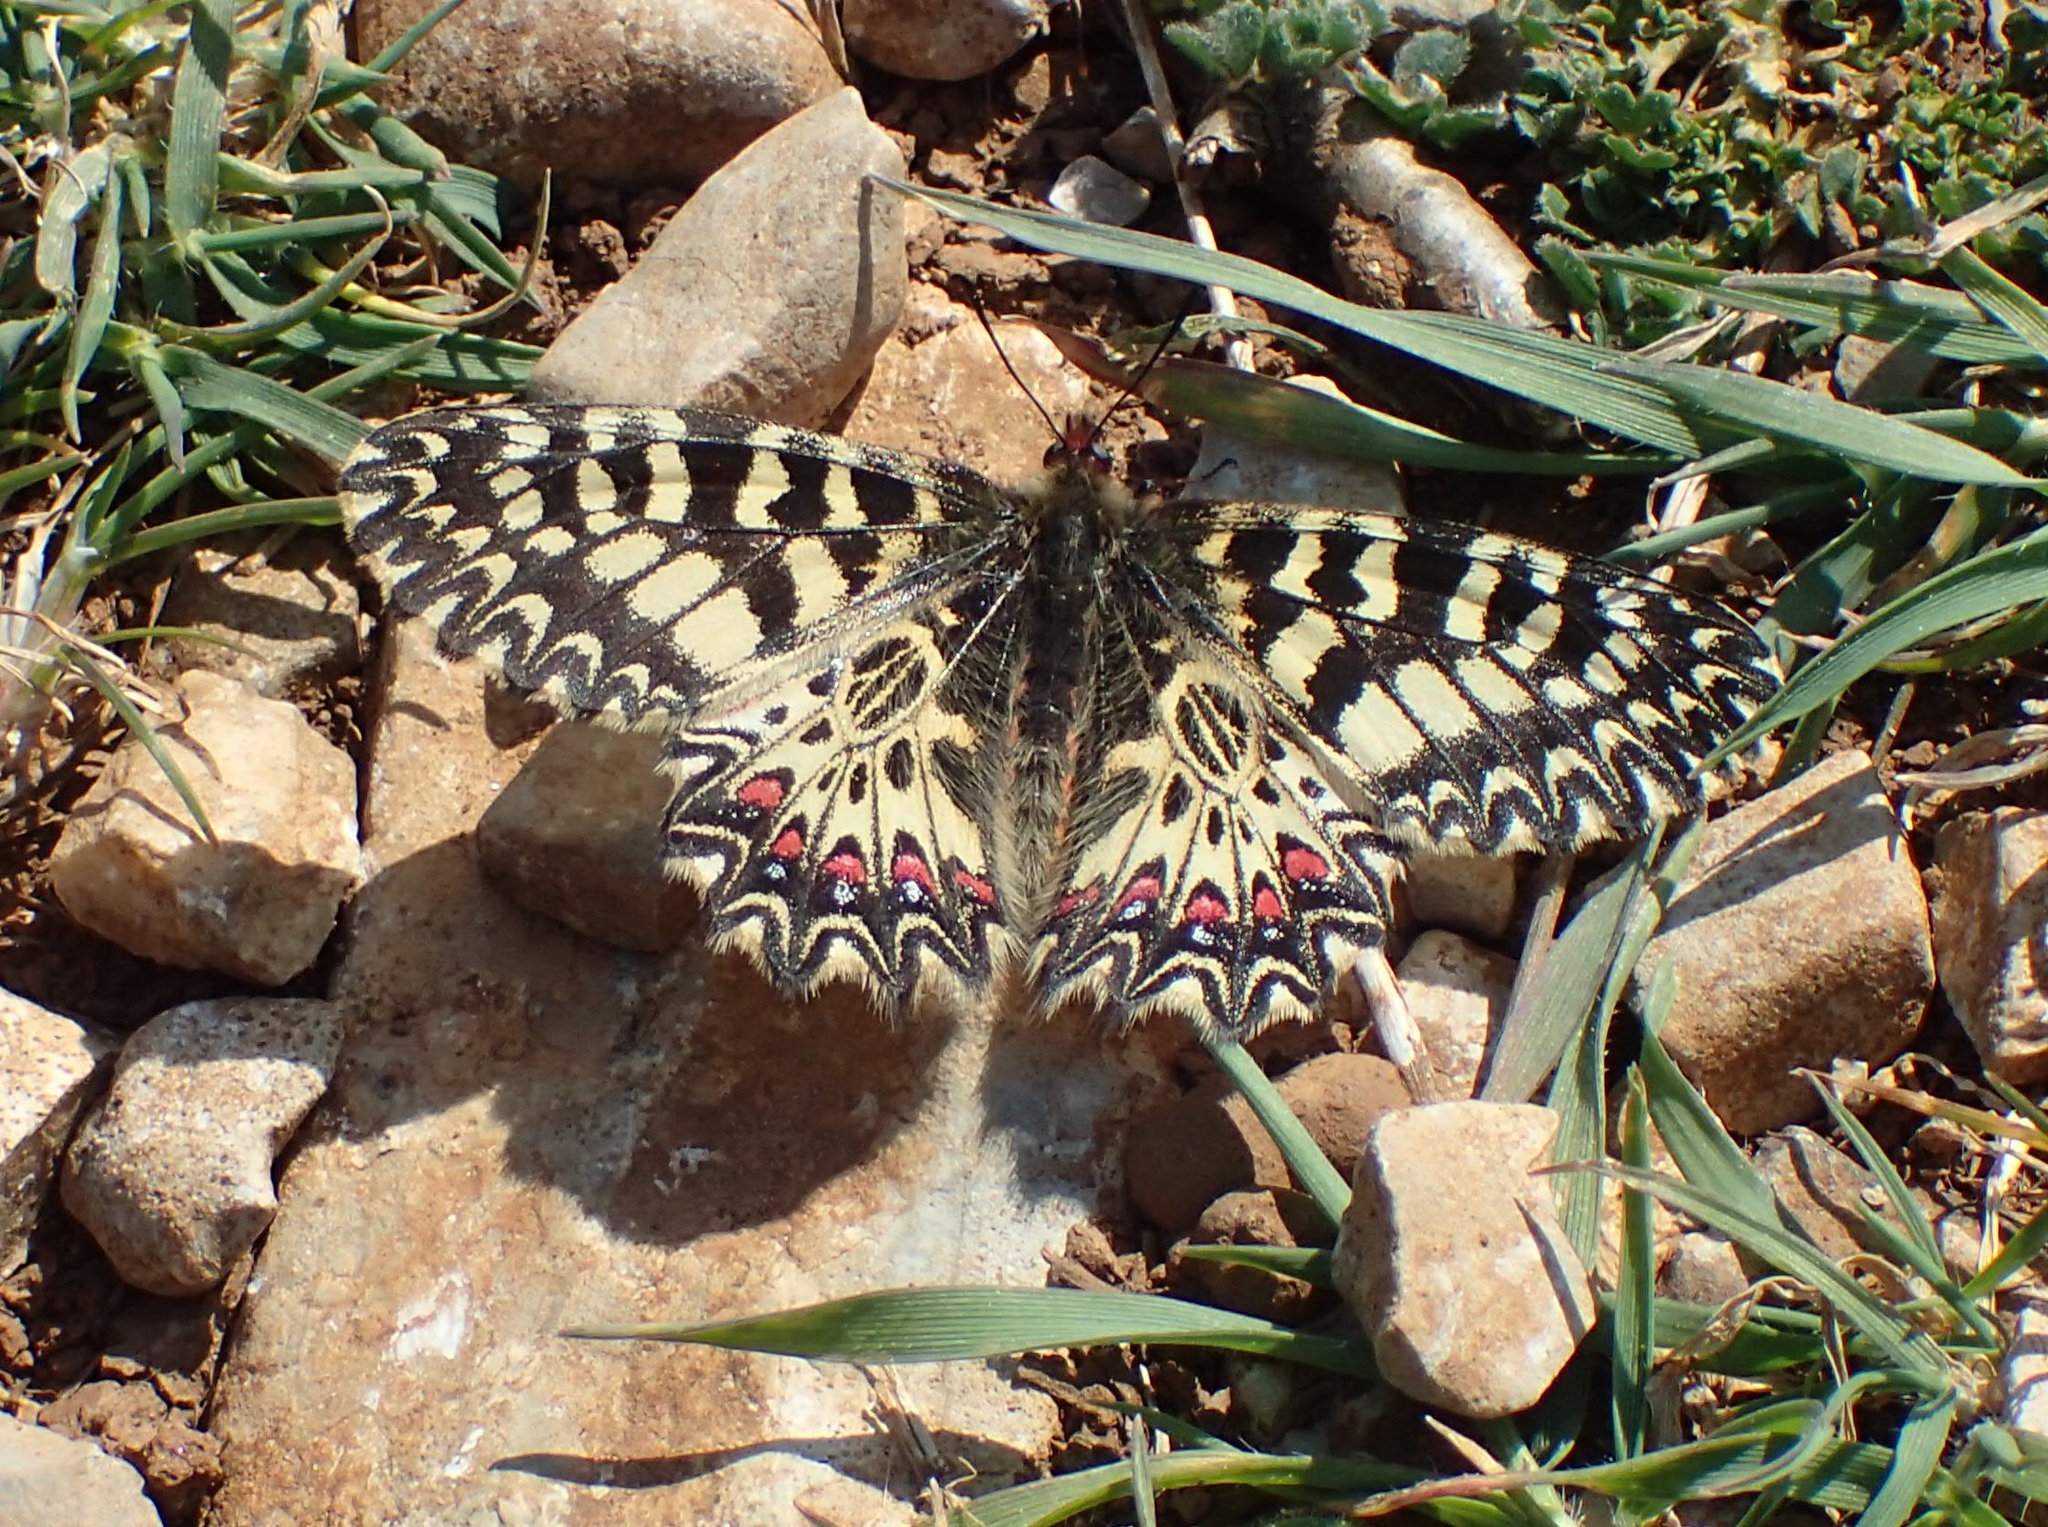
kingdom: Animalia
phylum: Arthropoda
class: Insecta
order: Lepidoptera
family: Papilionidae
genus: Zerynthia
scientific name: Zerynthia polyxena
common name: Southern festoon
